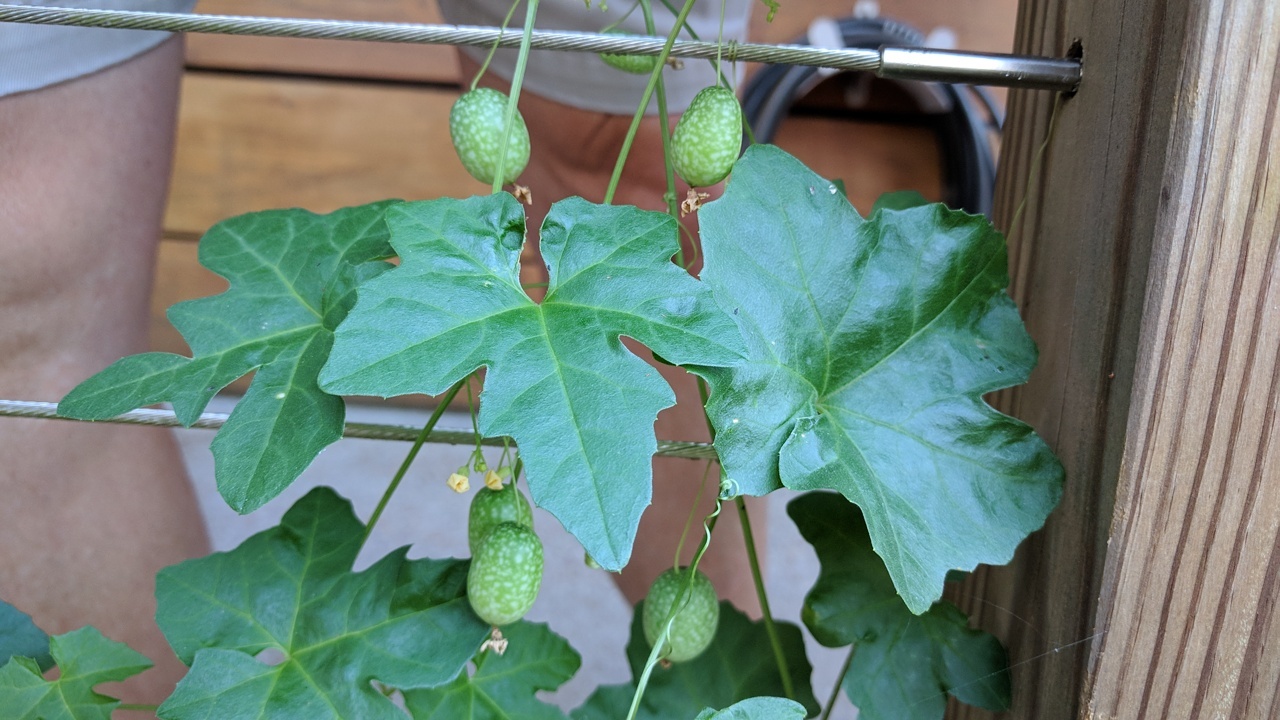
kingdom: Plantae
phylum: Tracheophyta
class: Magnoliopsida
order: Cucurbitales
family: Cucurbitaceae
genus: Melothria
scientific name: Melothria pendula
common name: Creeping-cucumber
